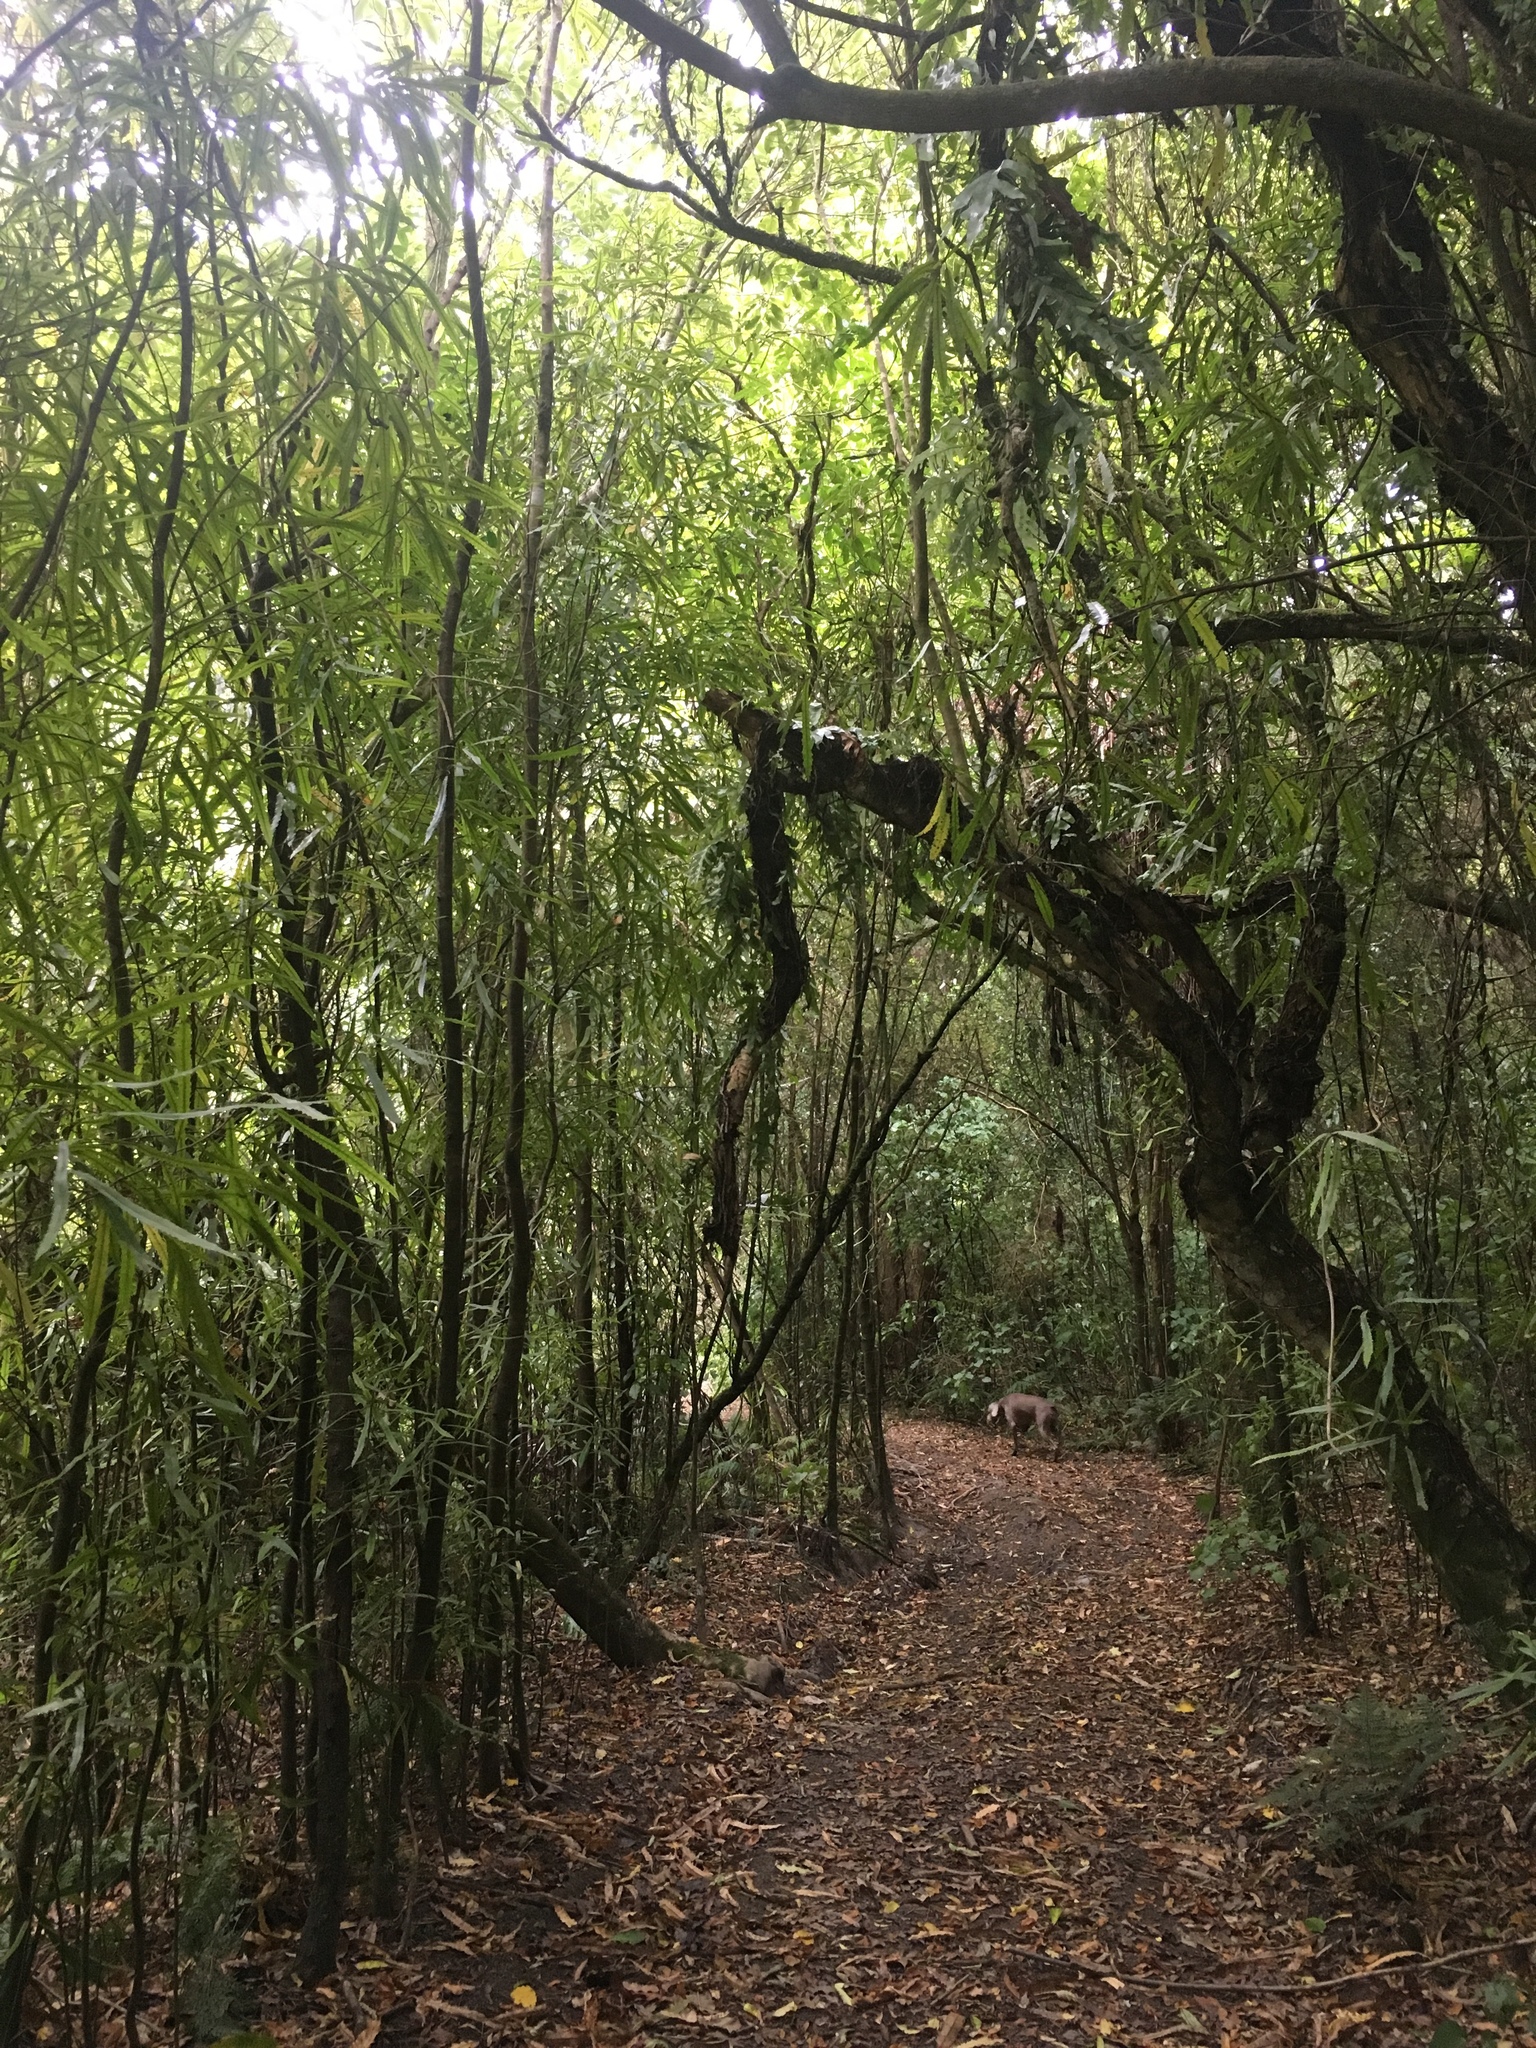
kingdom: Plantae
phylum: Tracheophyta
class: Magnoliopsida
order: Proteales
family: Proteaceae
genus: Knightia
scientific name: Knightia excelsa
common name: New zealand-honeysuckle
